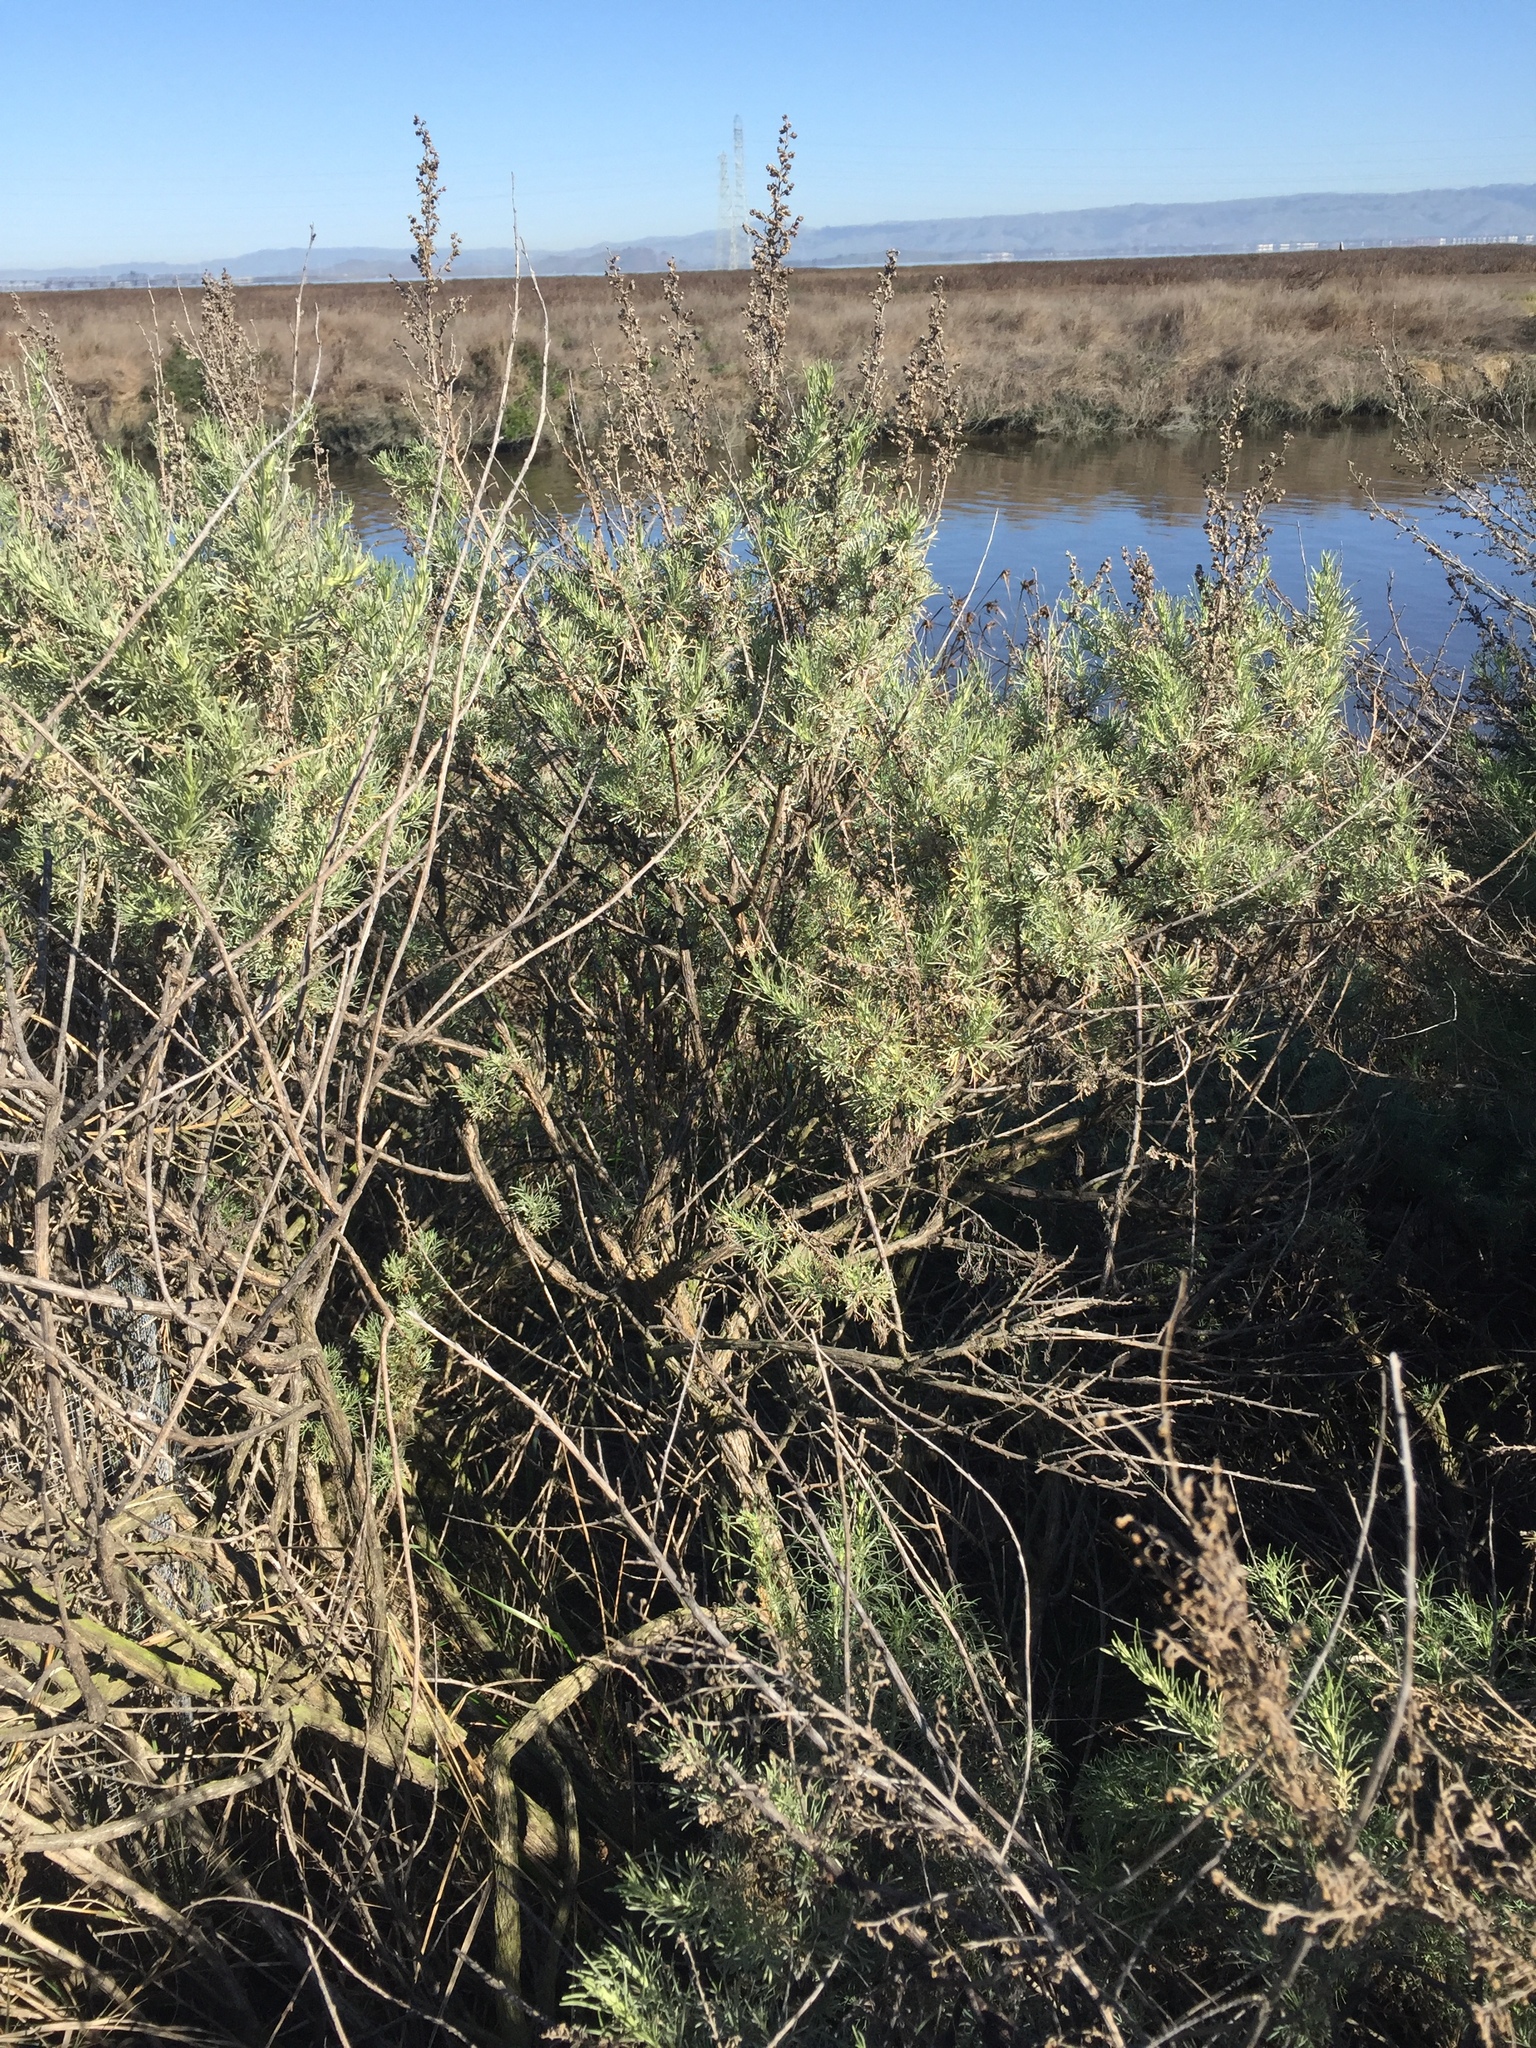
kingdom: Plantae
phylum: Tracheophyta
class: Magnoliopsida
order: Asterales
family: Asteraceae
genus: Artemisia
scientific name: Artemisia californica
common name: California sagebrush
